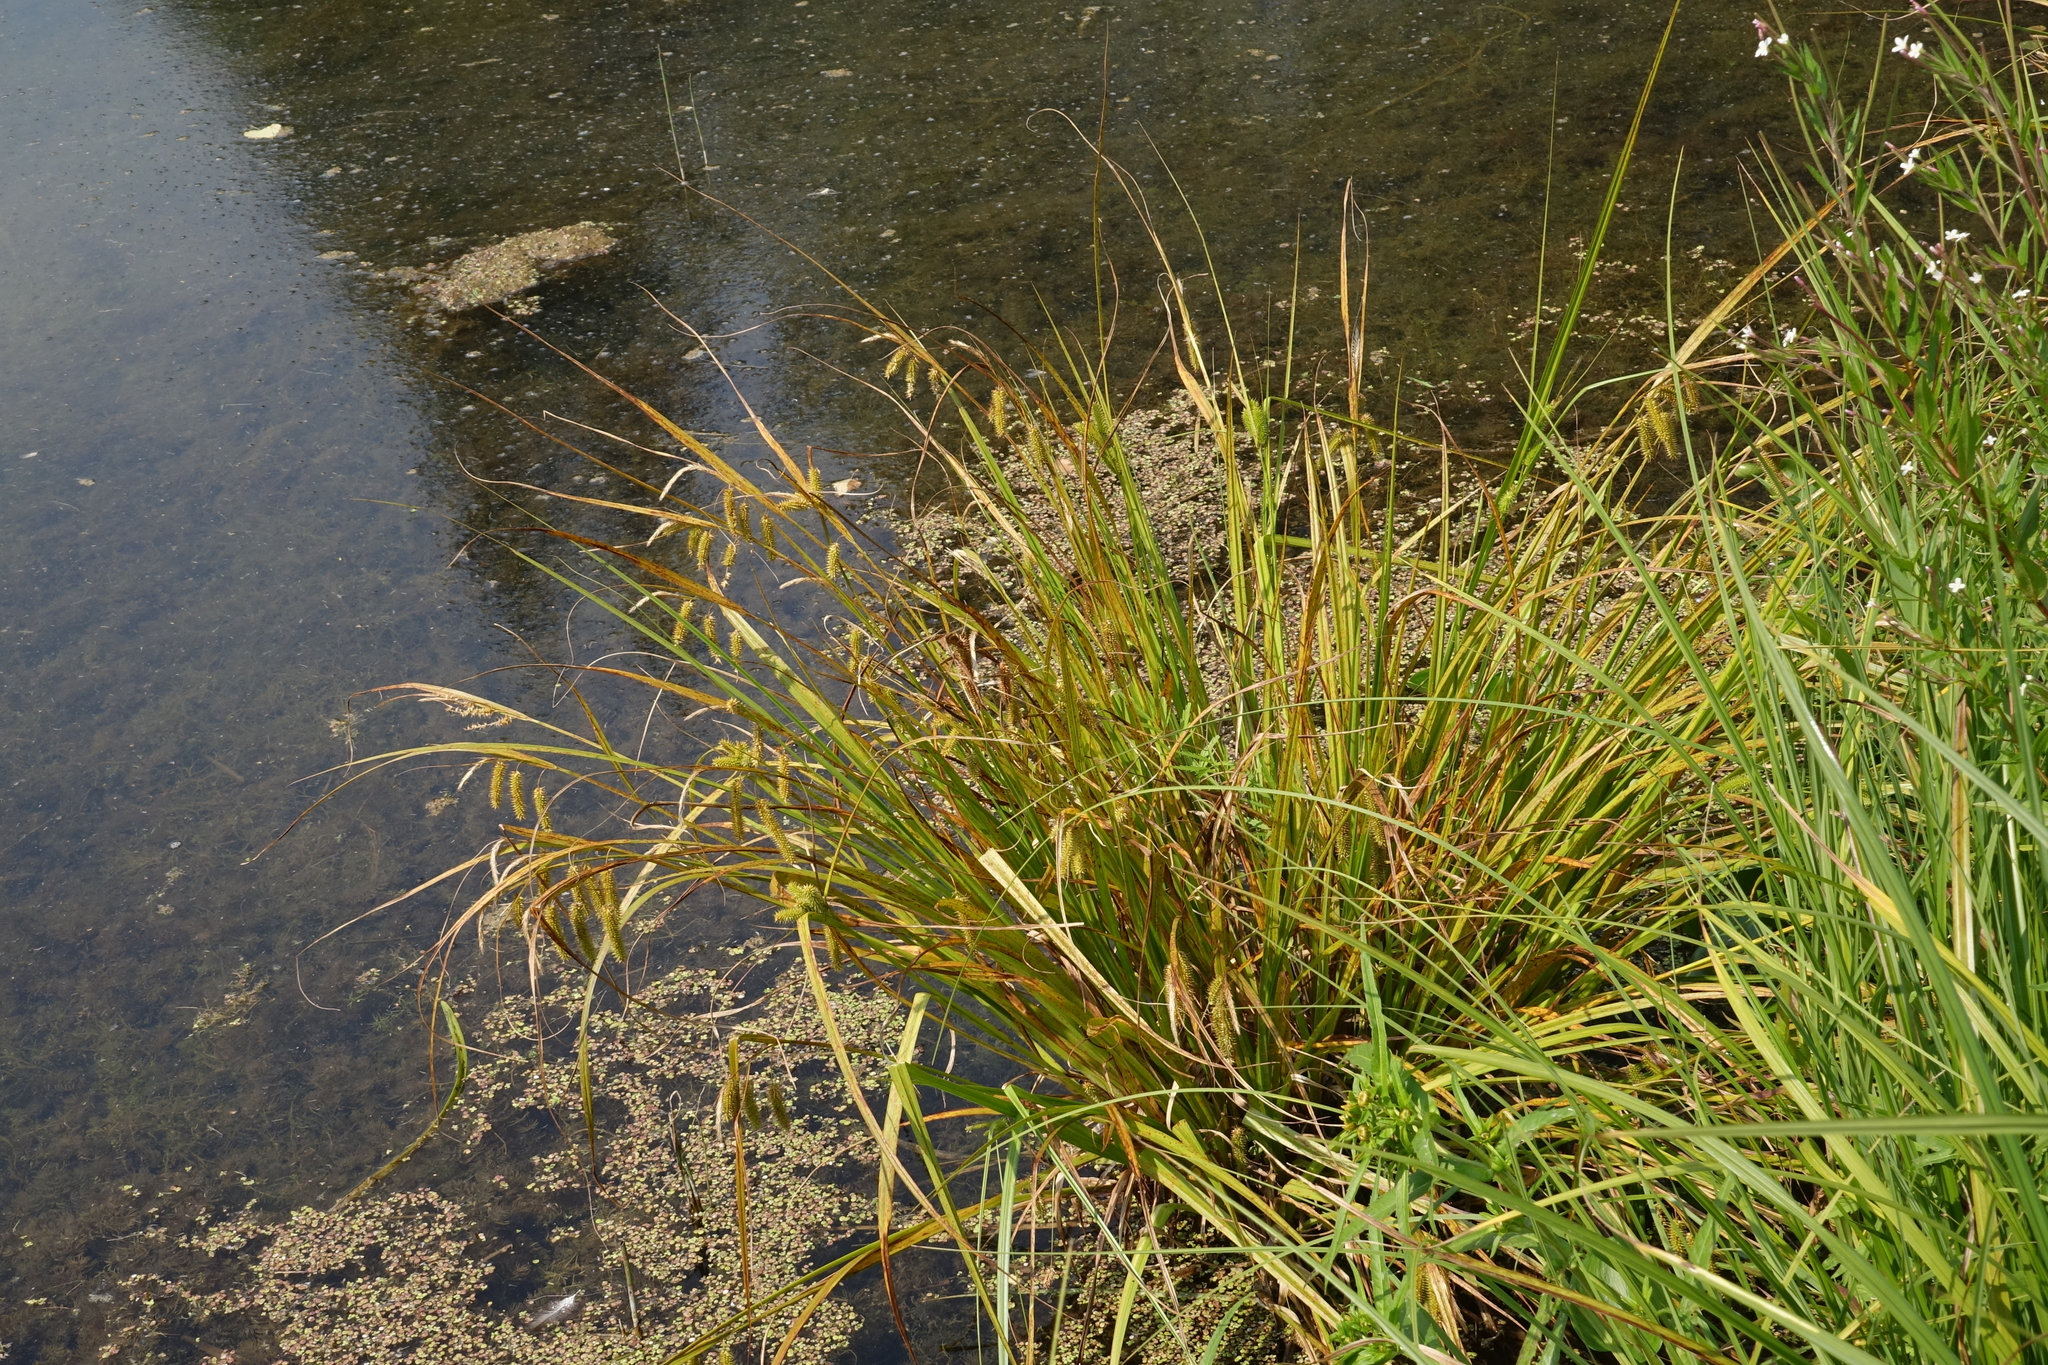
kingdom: Plantae
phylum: Tracheophyta
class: Liliopsida
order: Poales
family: Cyperaceae
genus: Carex
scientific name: Carex pseudocyperus
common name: Cyperus sedge
